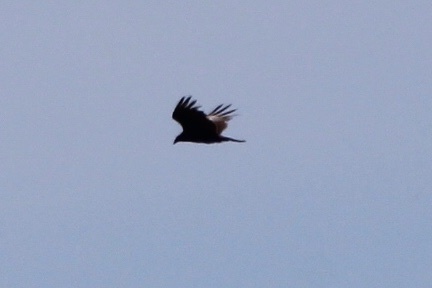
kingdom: Animalia
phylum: Chordata
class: Aves
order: Accipitriformes
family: Cathartidae
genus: Cathartes
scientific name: Cathartes aura
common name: Turkey vulture
